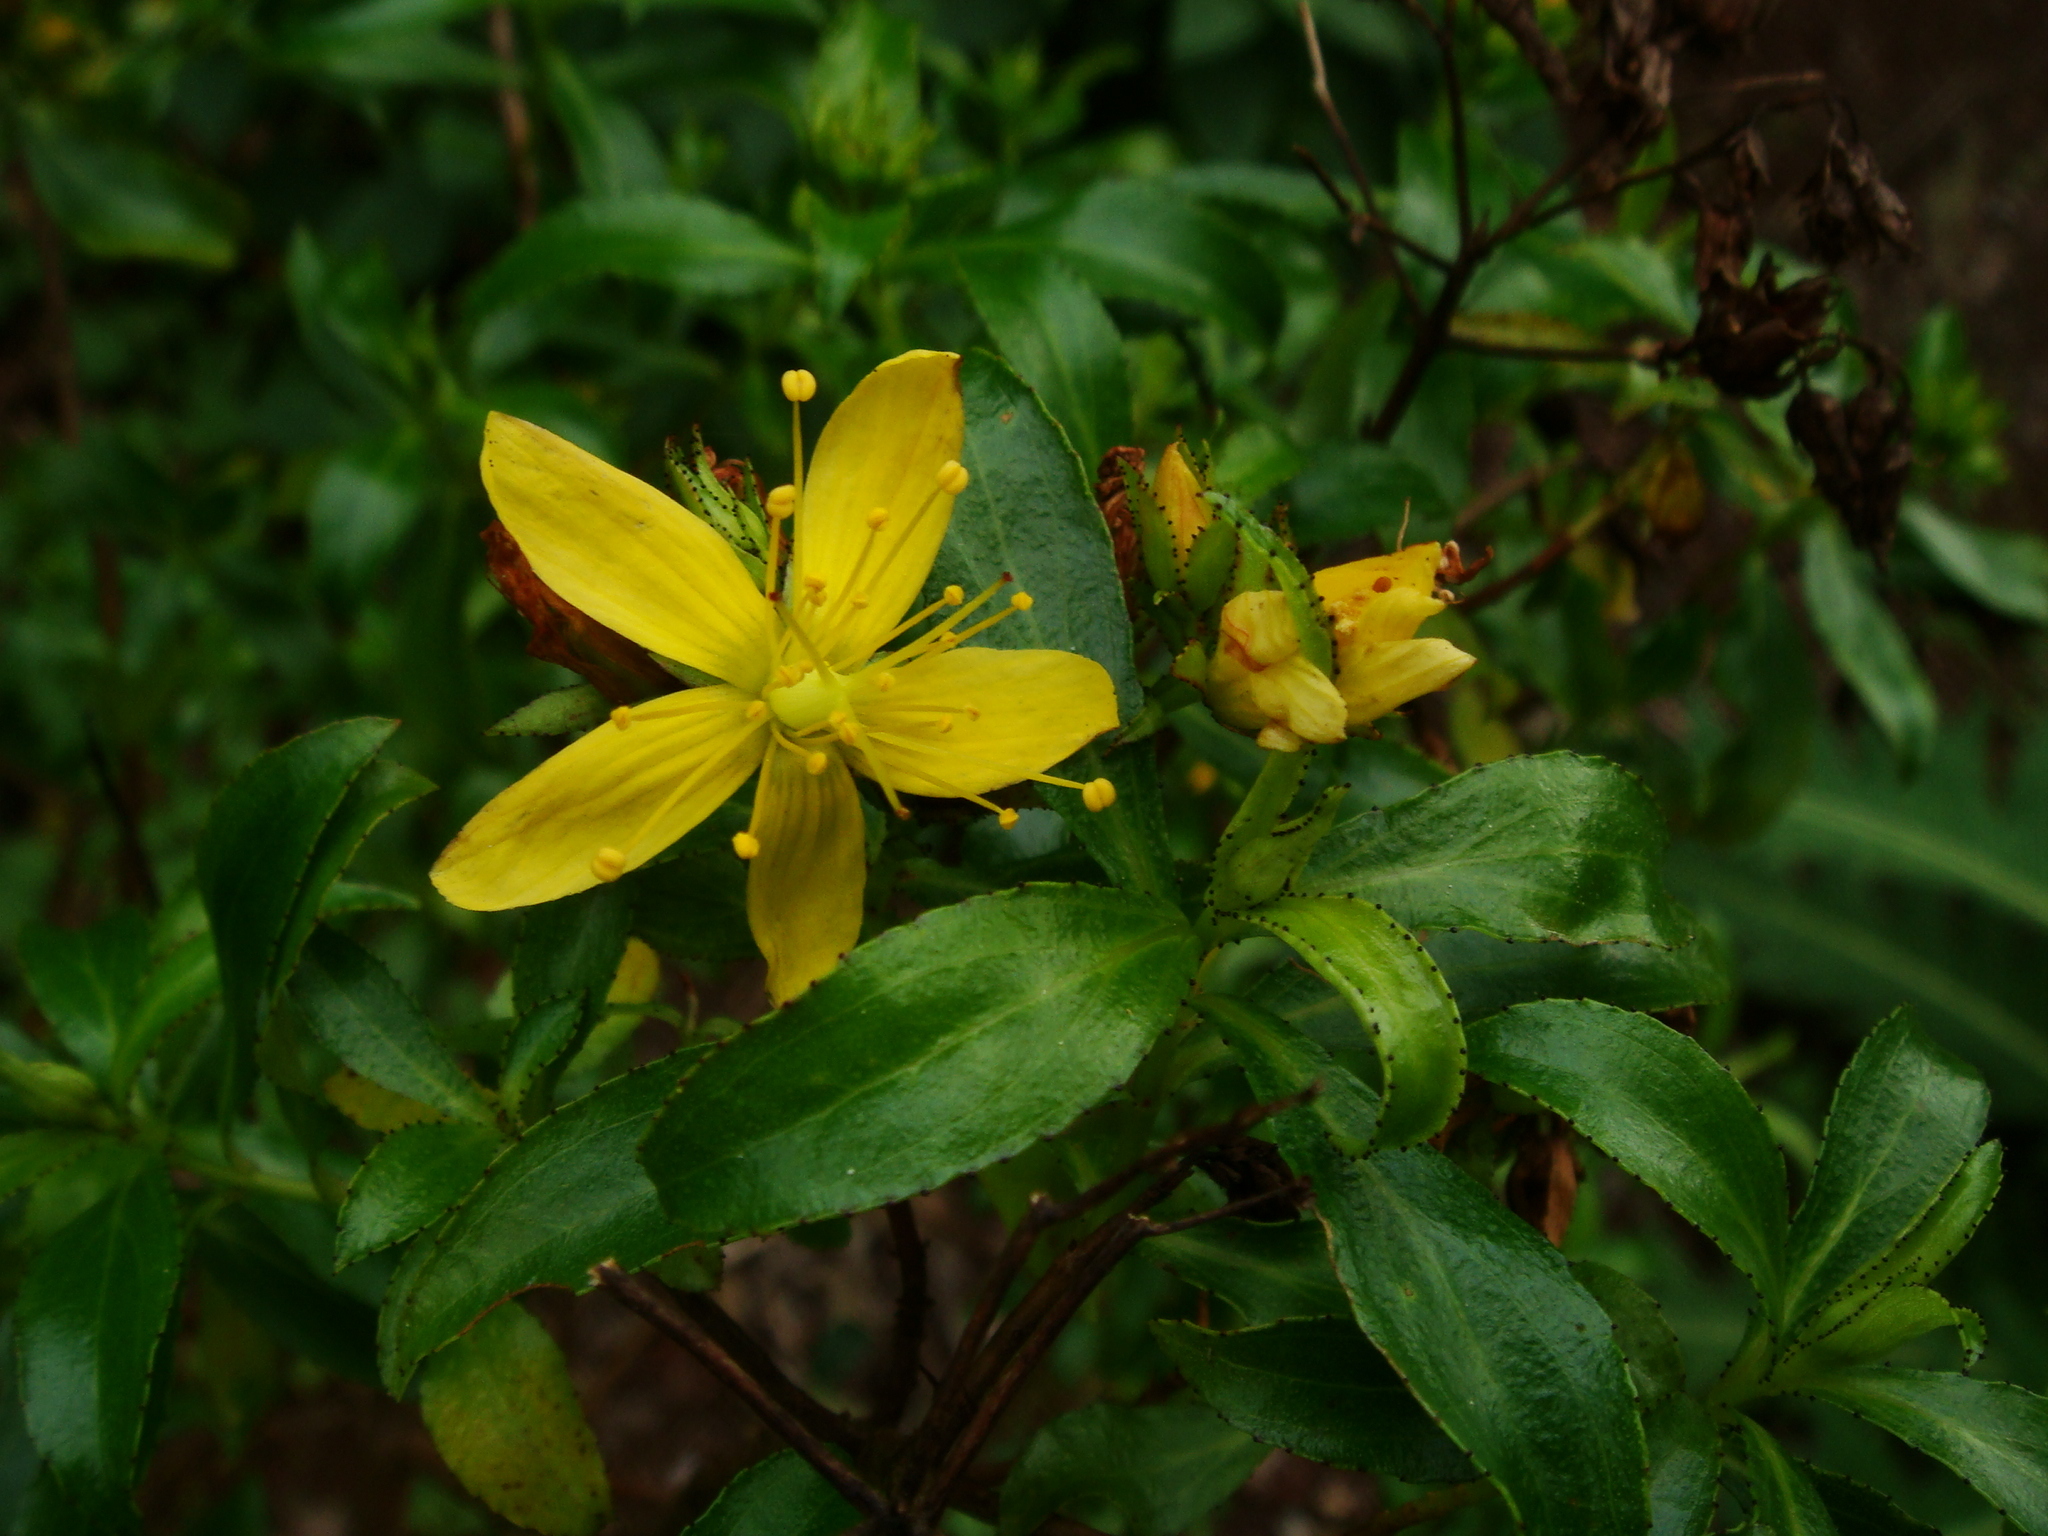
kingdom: Plantae
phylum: Tracheophyta
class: Magnoliopsida
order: Malpighiales
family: Hypericaceae
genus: Hypericum
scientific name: Hypericum glandulosum
